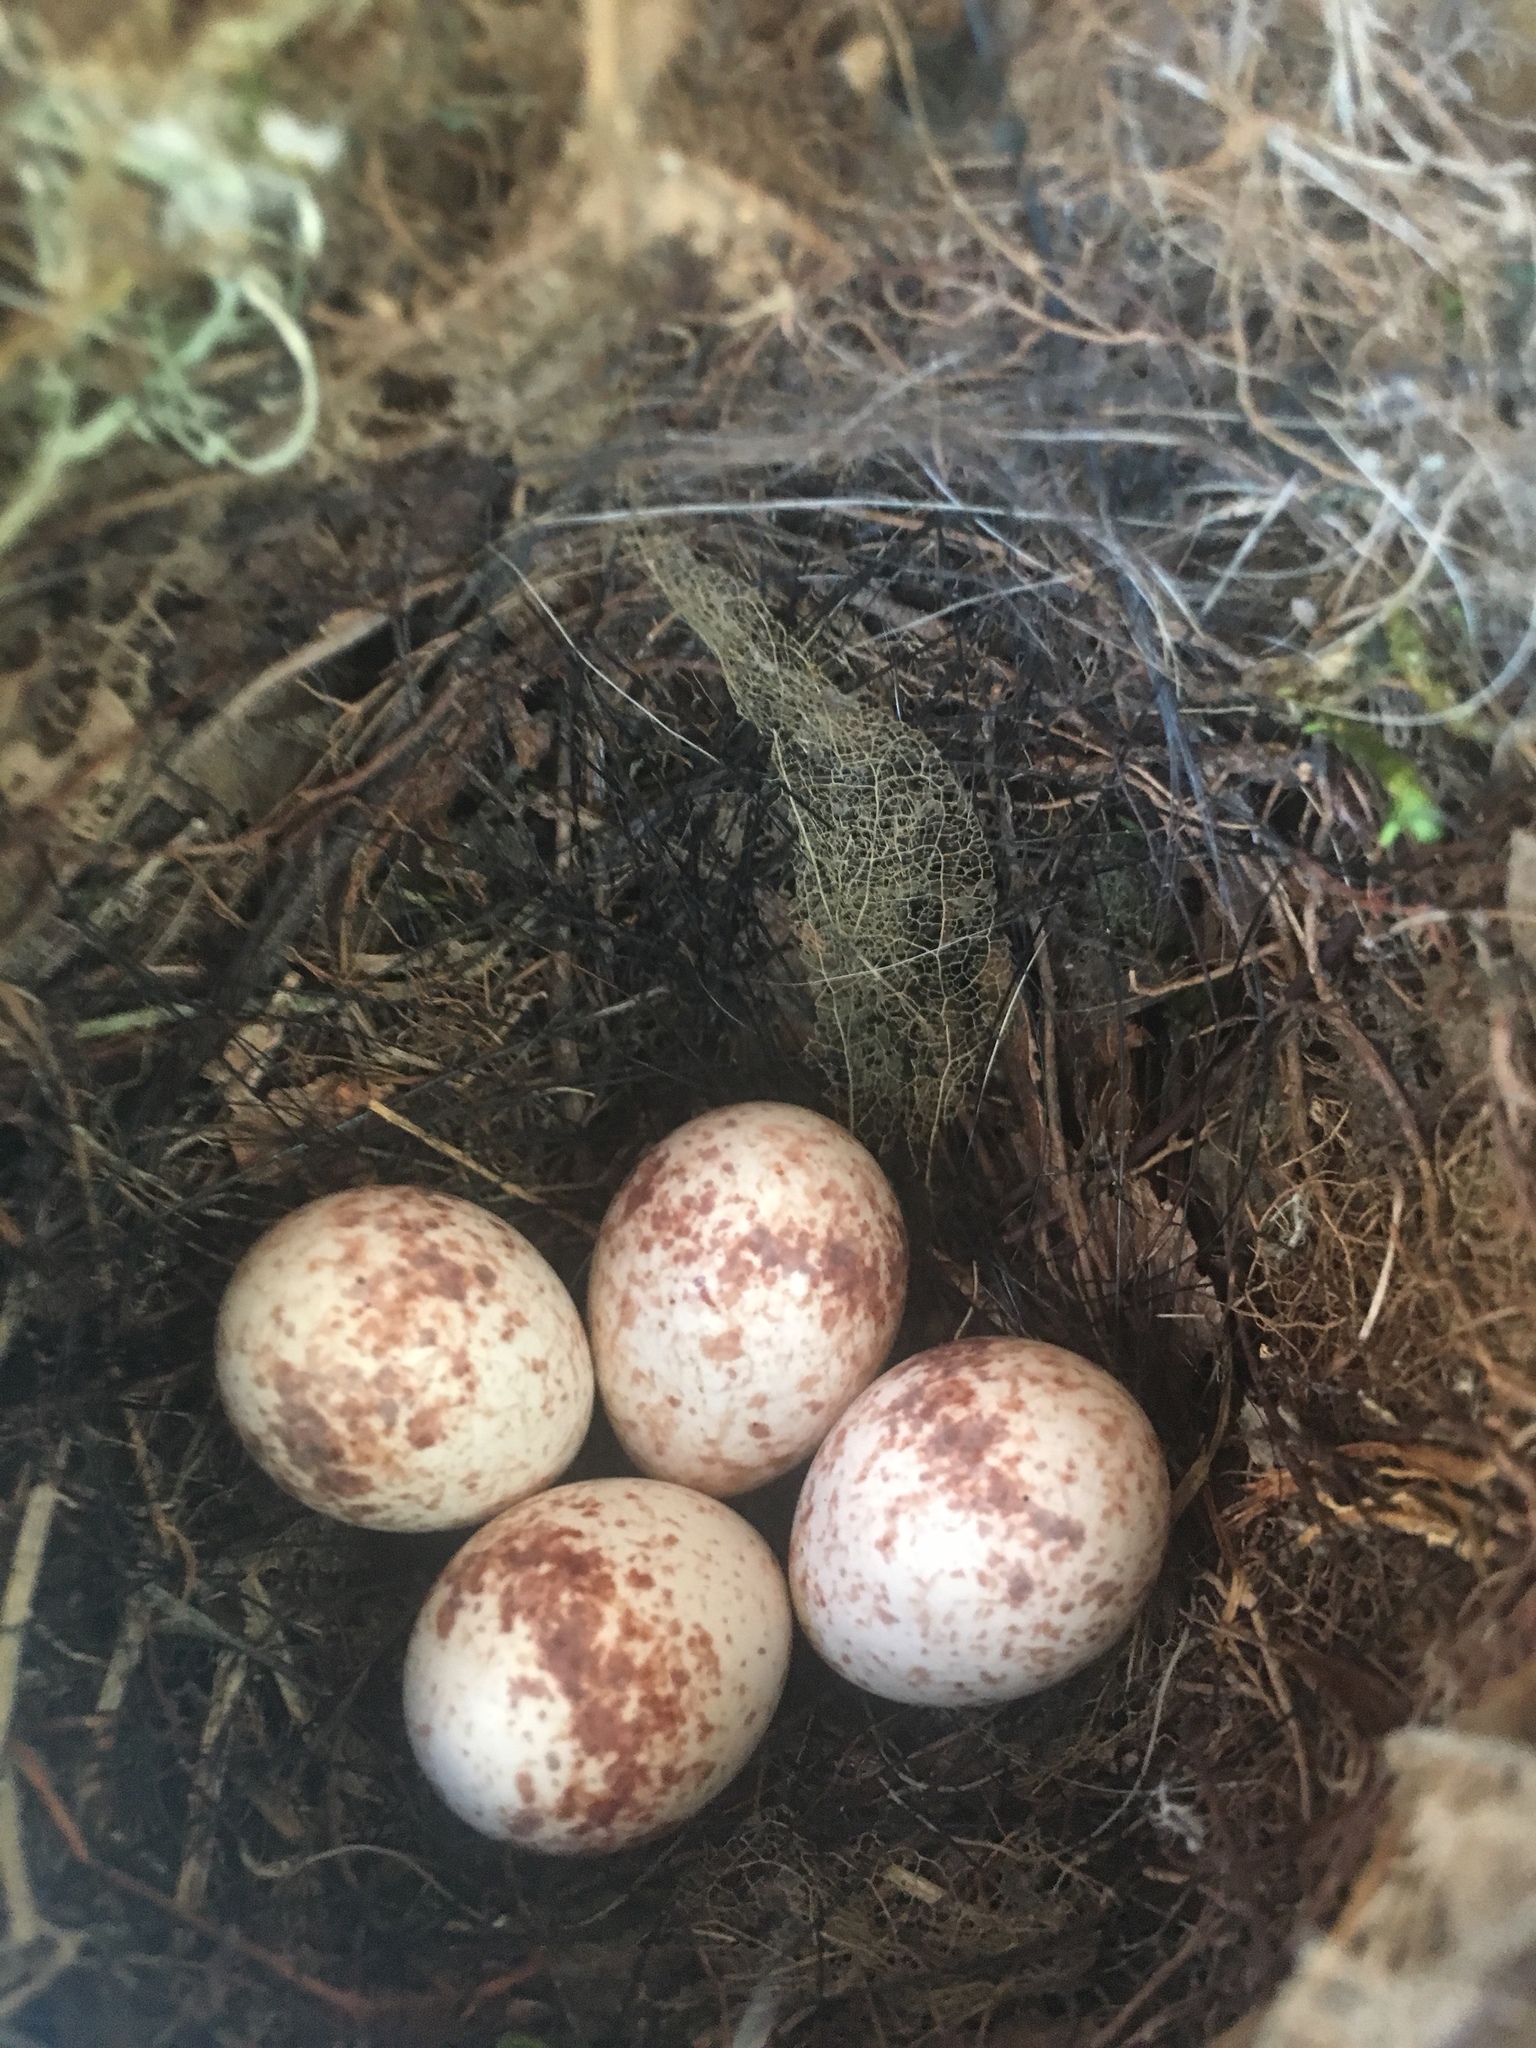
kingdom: Animalia
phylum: Chordata
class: Aves
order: Passeriformes
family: Troglodytidae
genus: Thryothorus
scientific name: Thryothorus ludovicianus
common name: Carolina wren
